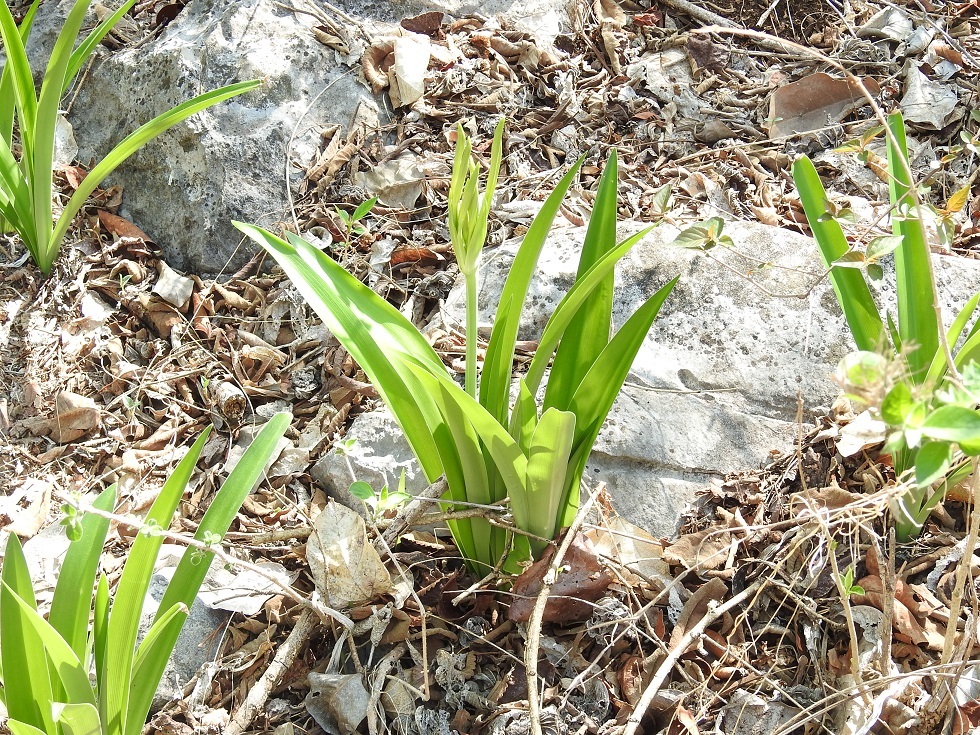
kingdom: Plantae
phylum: Tracheophyta
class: Liliopsida
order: Asparagales
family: Amaryllidaceae
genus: Hymenocallis
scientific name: Hymenocallis acutifolia
